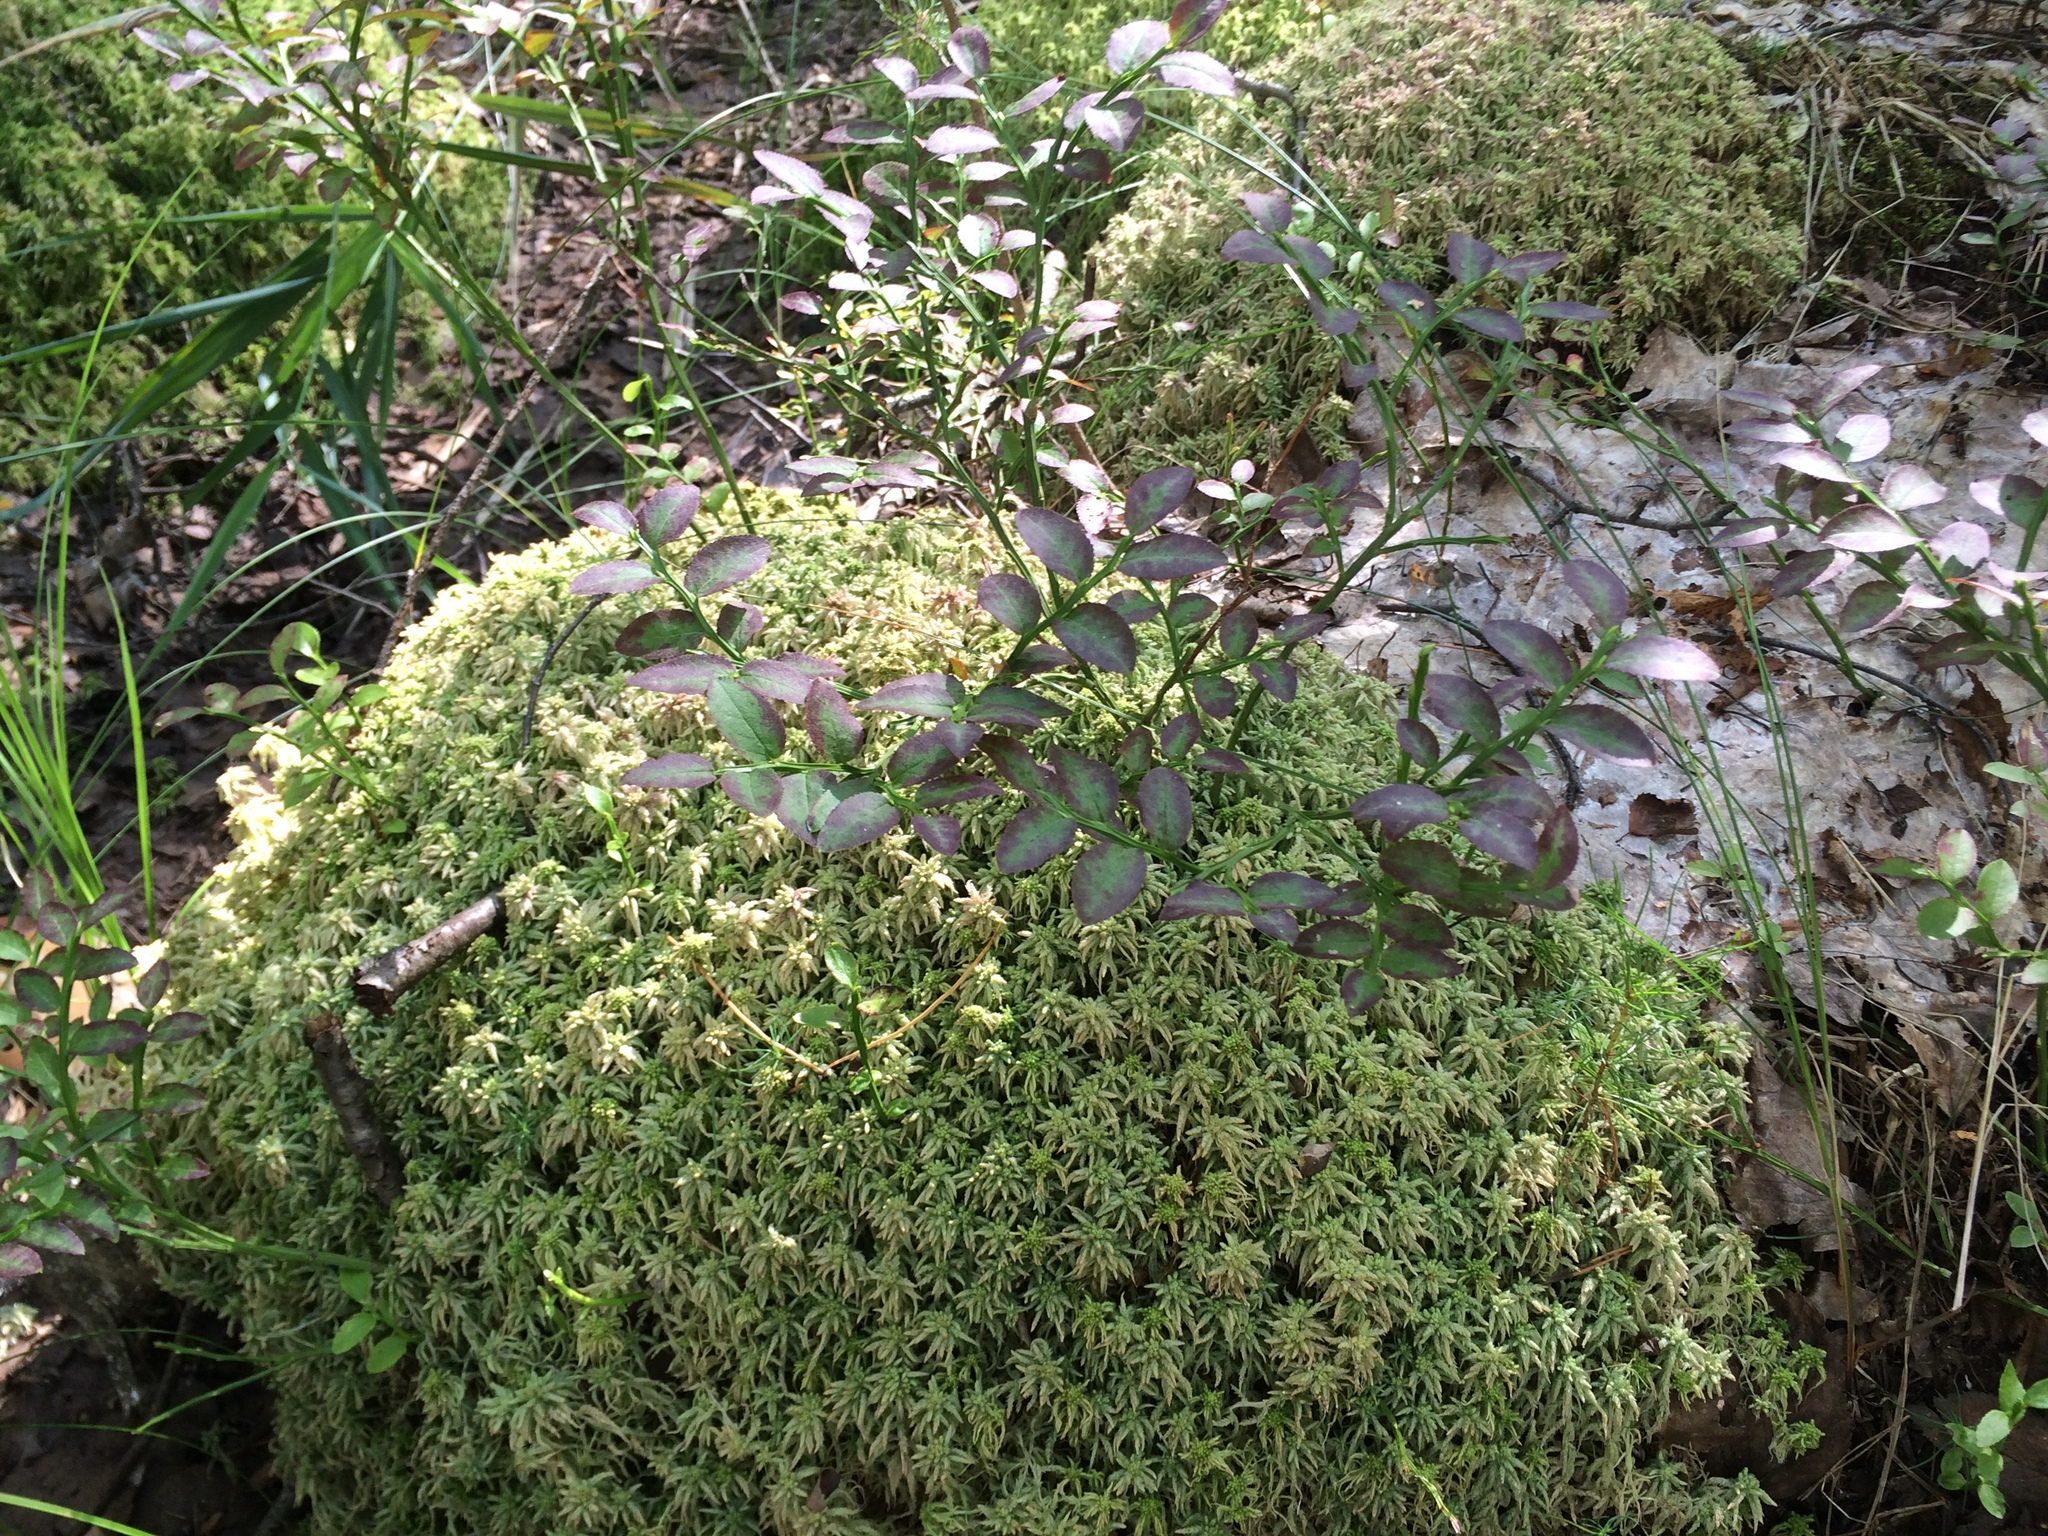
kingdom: Plantae
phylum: Tracheophyta
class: Magnoliopsida
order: Ericales
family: Ericaceae
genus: Vaccinium
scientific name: Vaccinium myrtillus
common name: Bilberry
